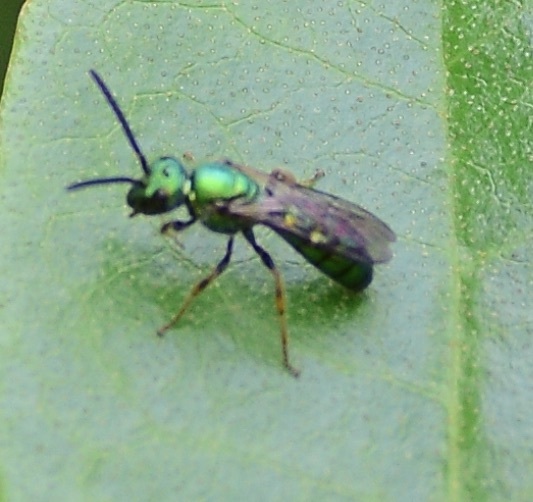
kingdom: Animalia
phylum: Arthropoda
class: Insecta
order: Hymenoptera
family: Halictidae
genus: Augochlora
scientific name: Augochlora pura
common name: Pure green sweat bee
